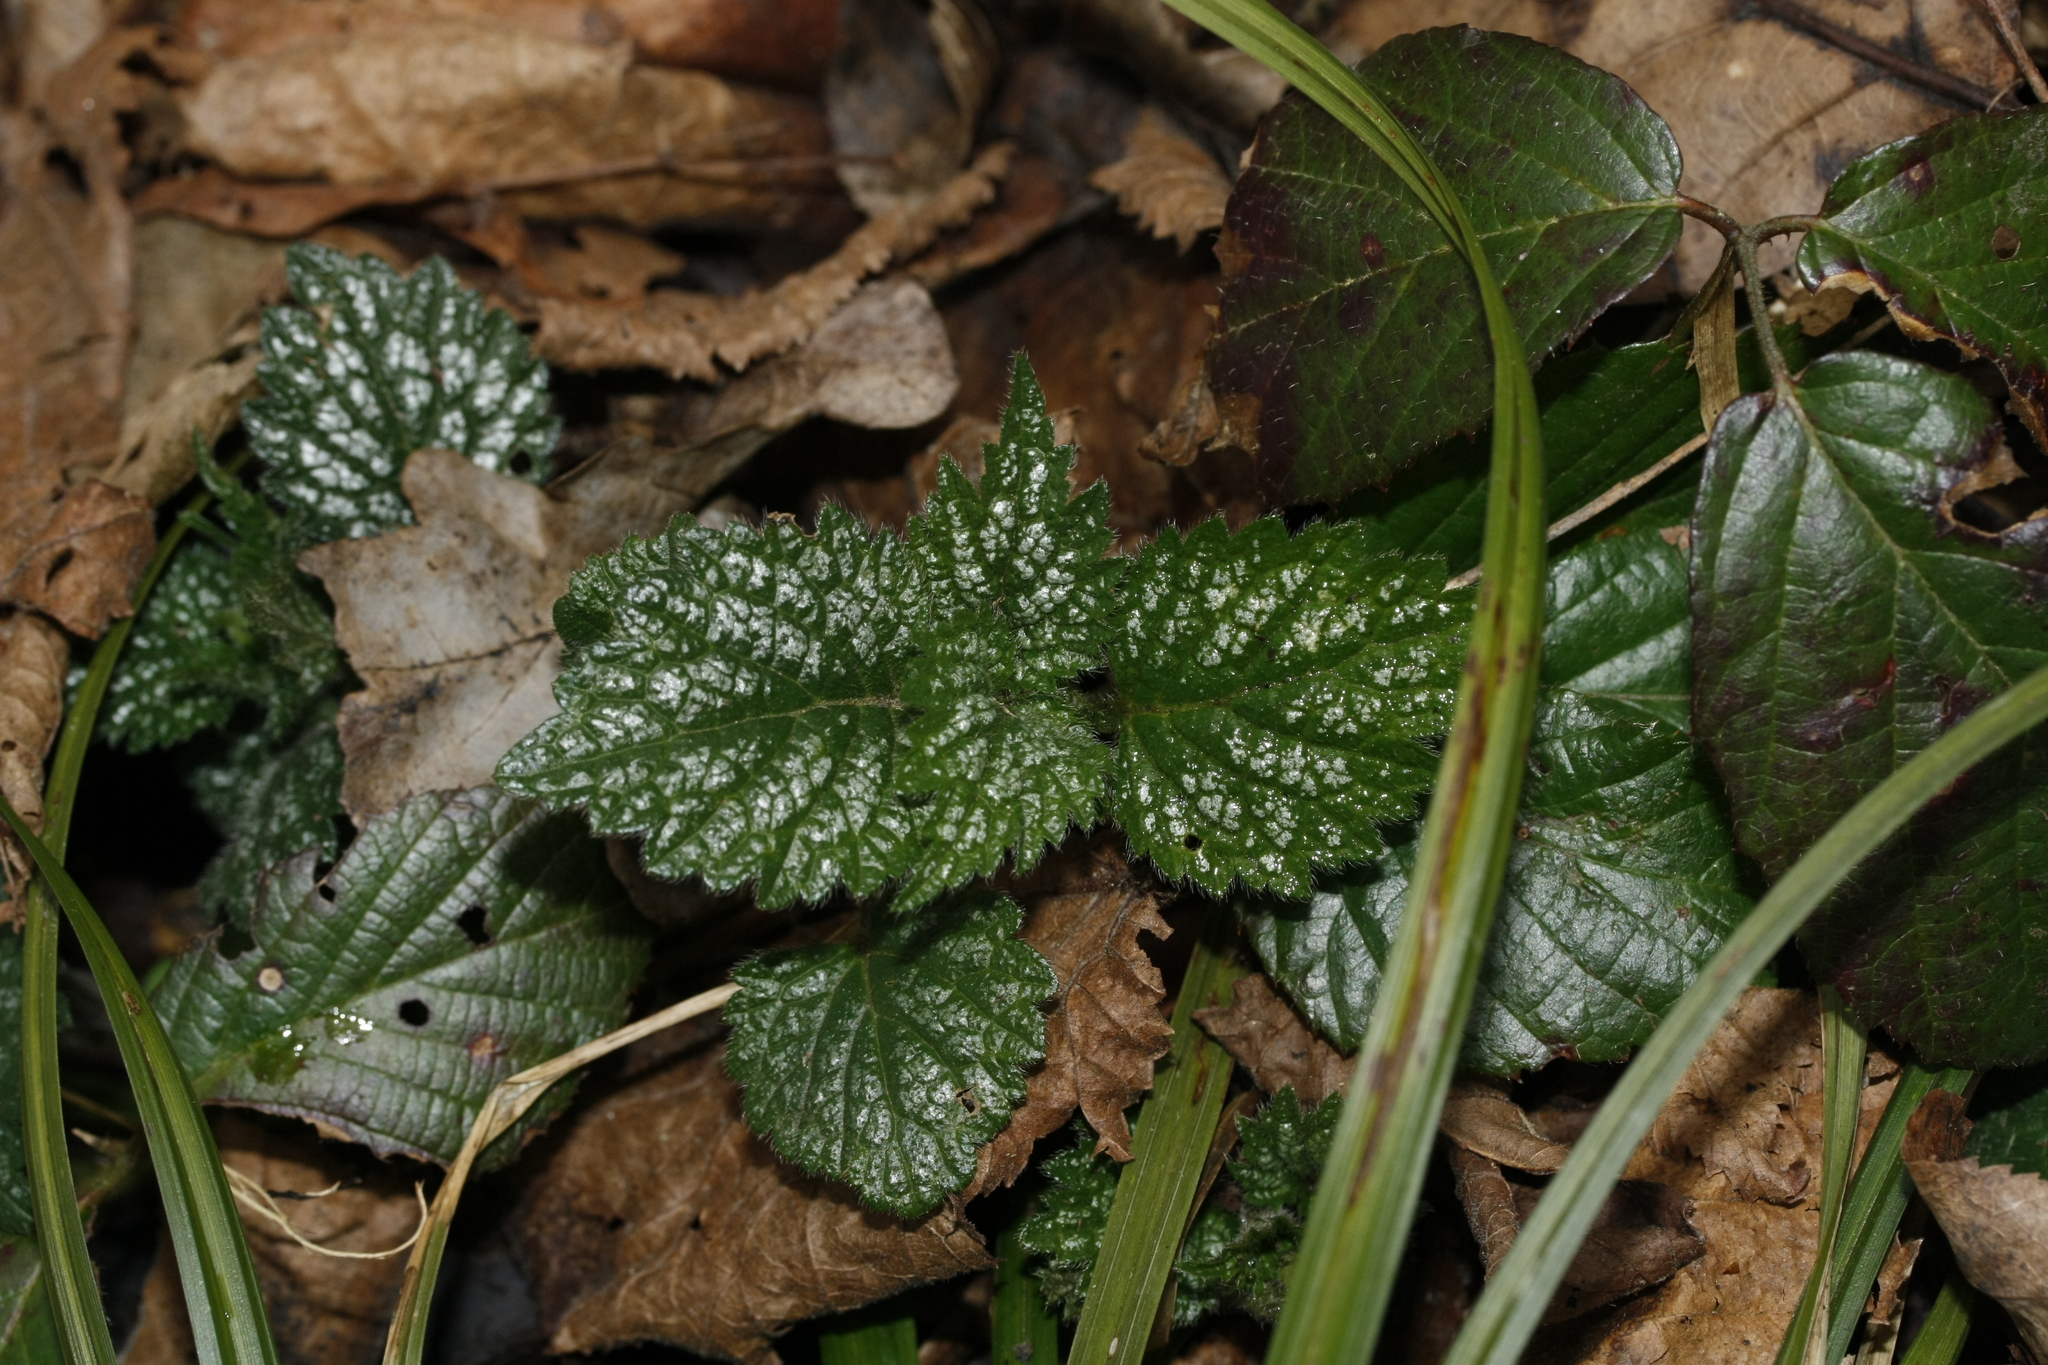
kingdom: Plantae
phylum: Tracheophyta
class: Magnoliopsida
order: Lamiales
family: Lamiaceae
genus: Lamium
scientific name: Lamium galeobdolon
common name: Yellow archangel
